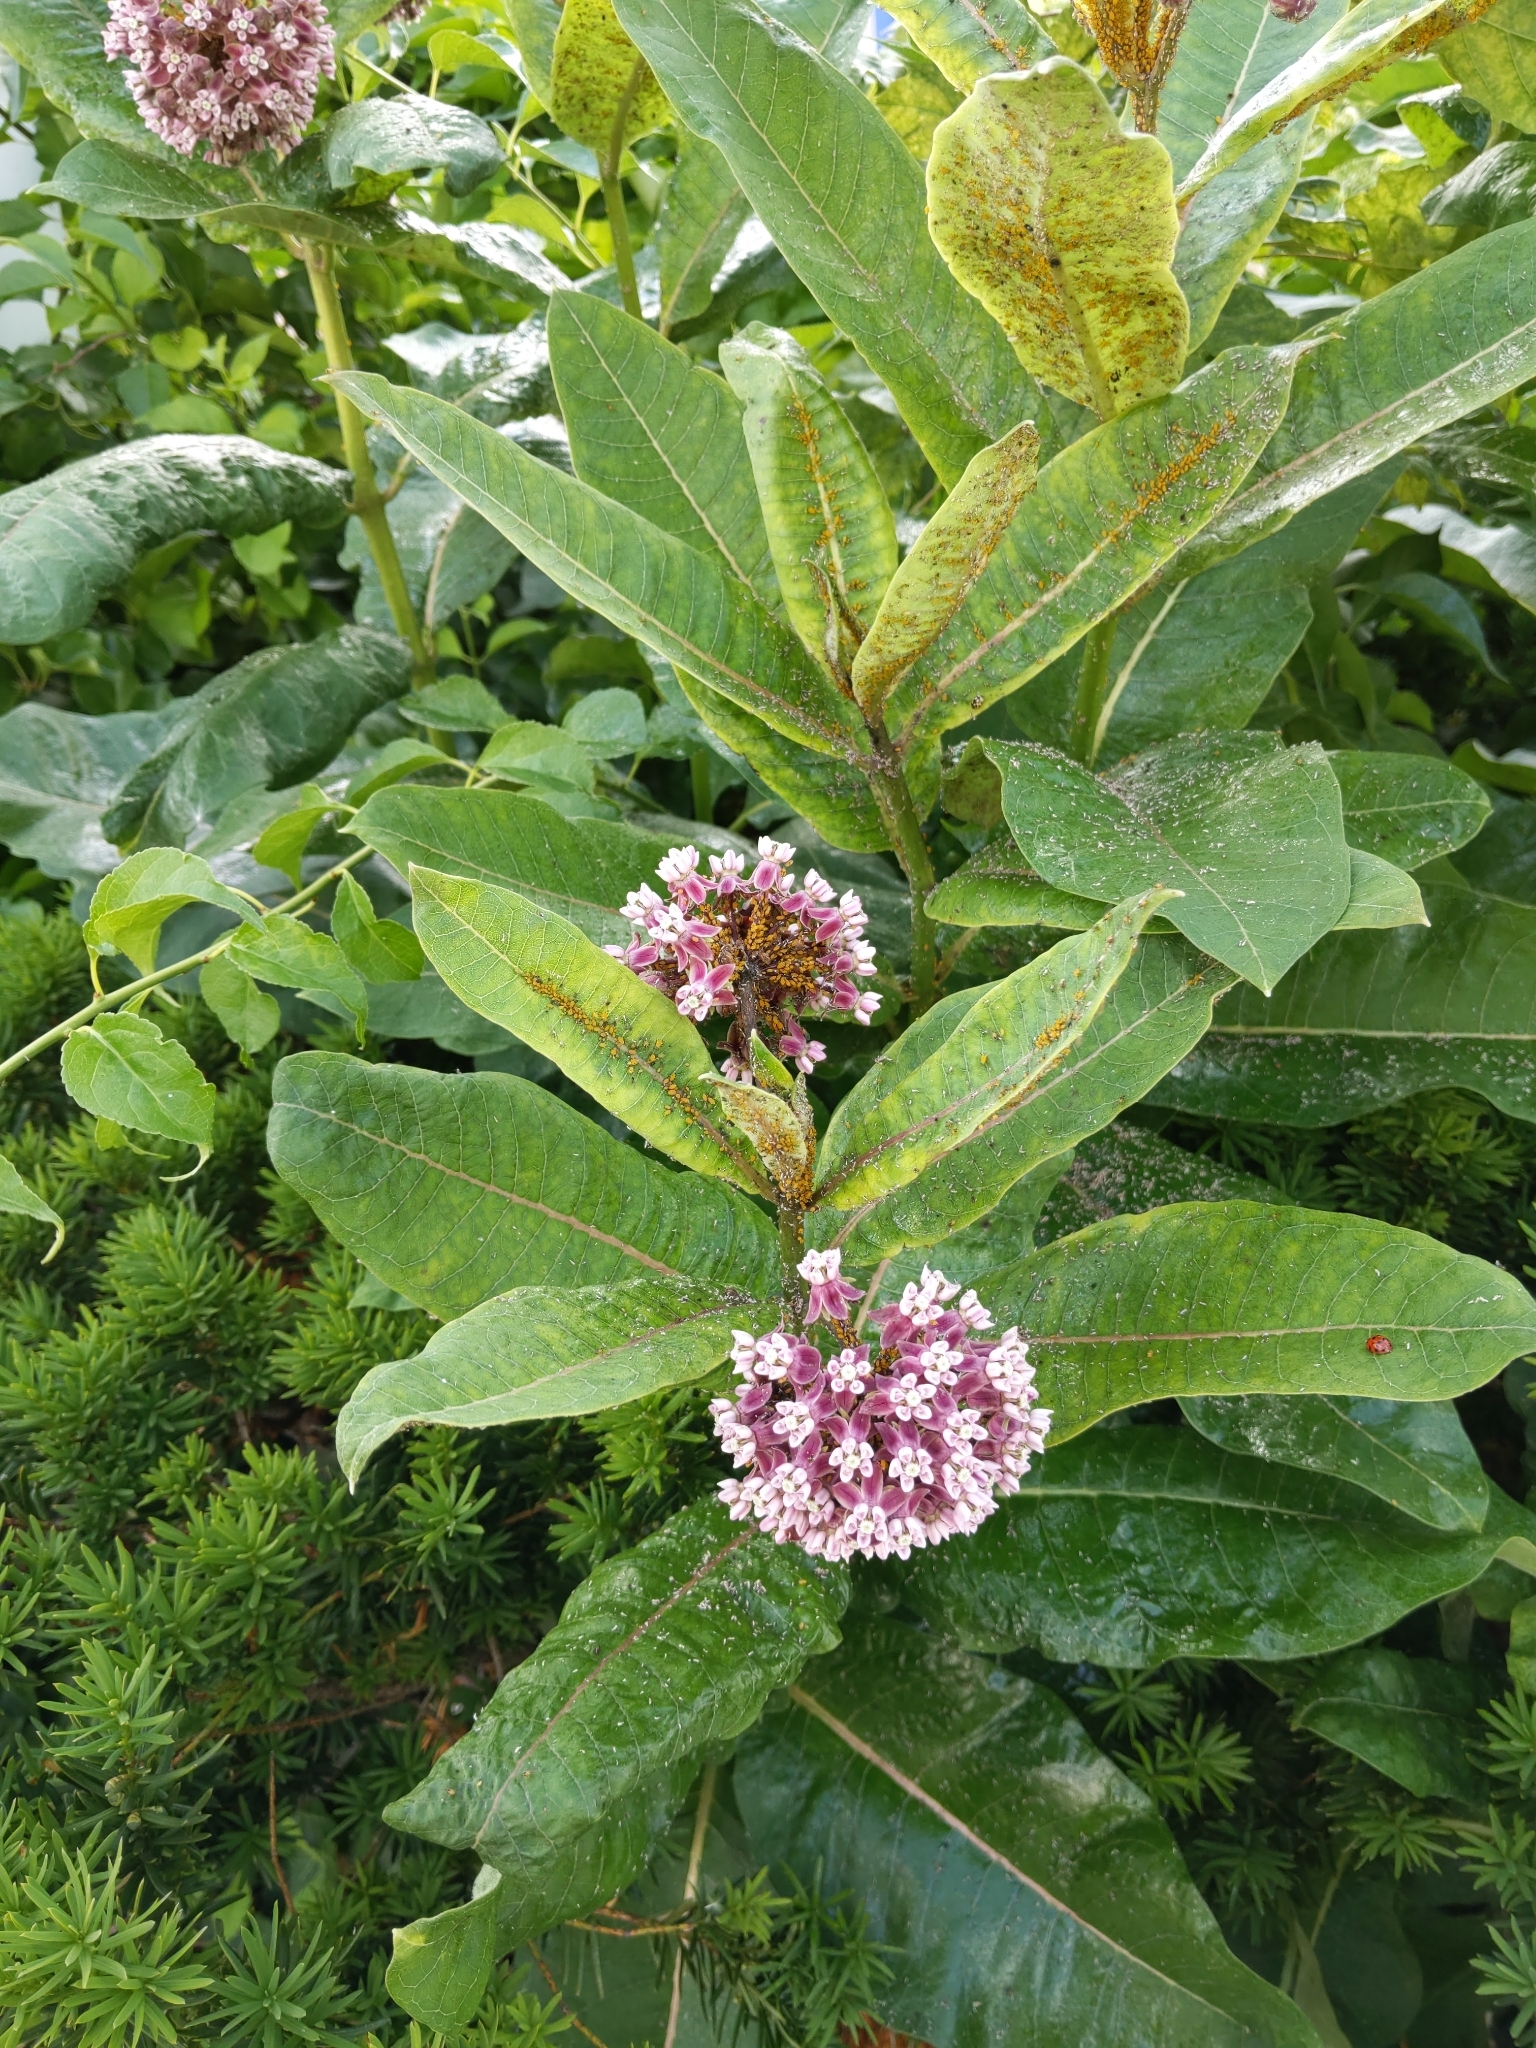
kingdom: Plantae
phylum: Tracheophyta
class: Magnoliopsida
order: Gentianales
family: Apocynaceae
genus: Asclepias
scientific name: Asclepias syriaca
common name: Common milkweed
